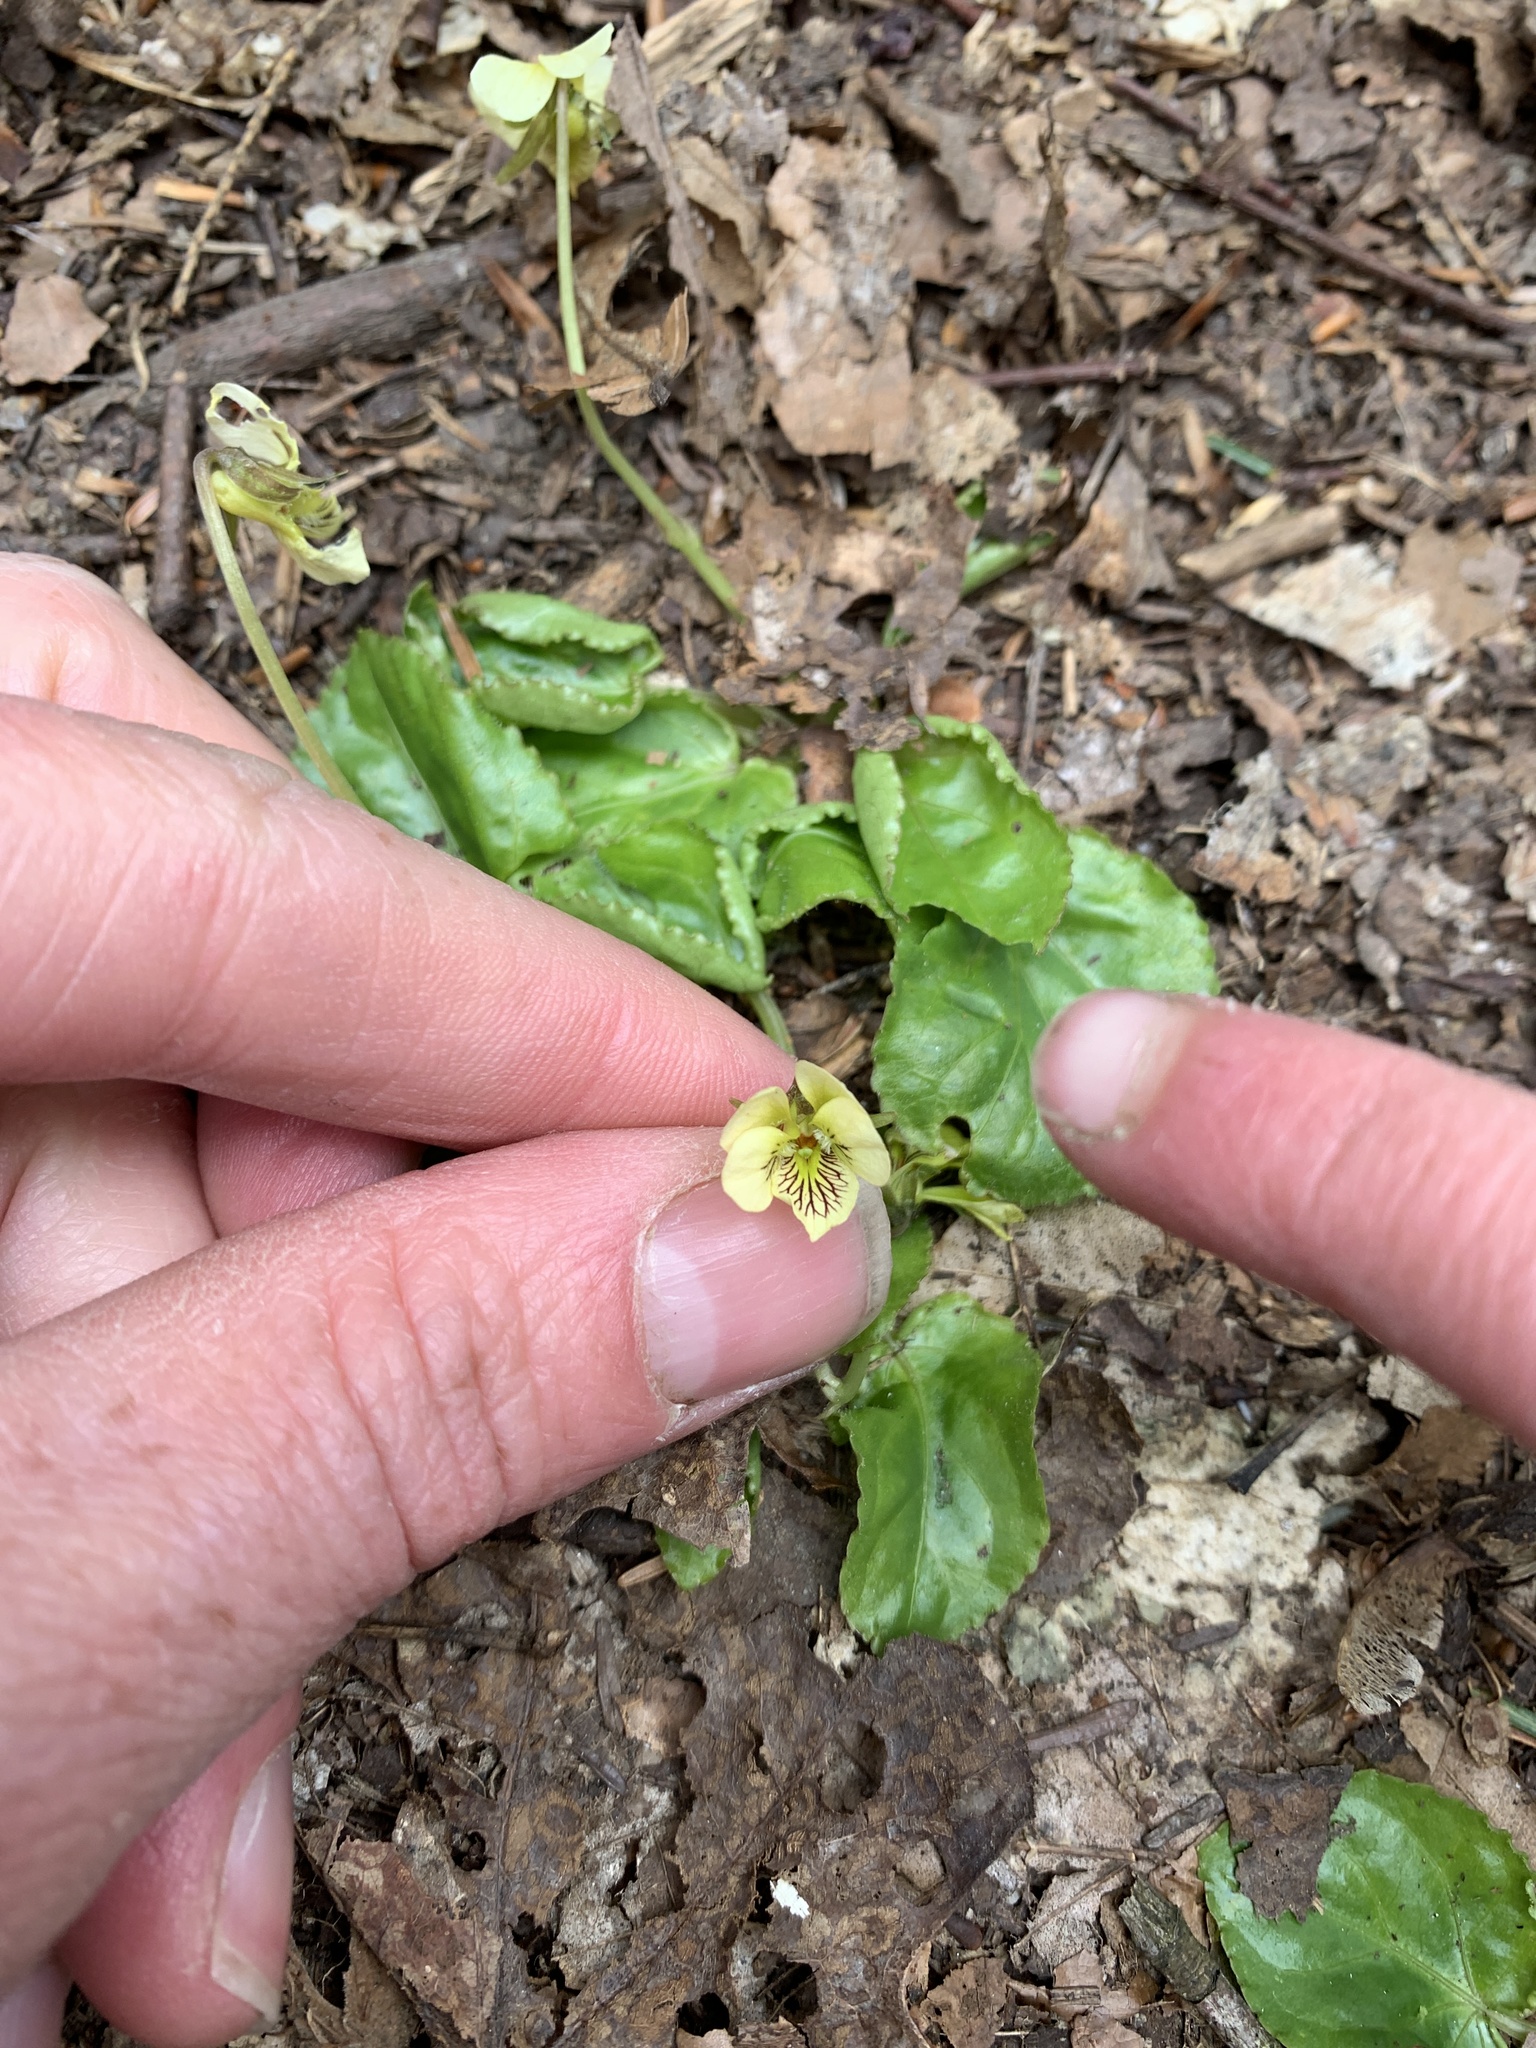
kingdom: Plantae
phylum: Tracheophyta
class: Magnoliopsida
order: Malpighiales
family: Violaceae
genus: Viola
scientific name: Viola rotundifolia
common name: Early yellow violet
